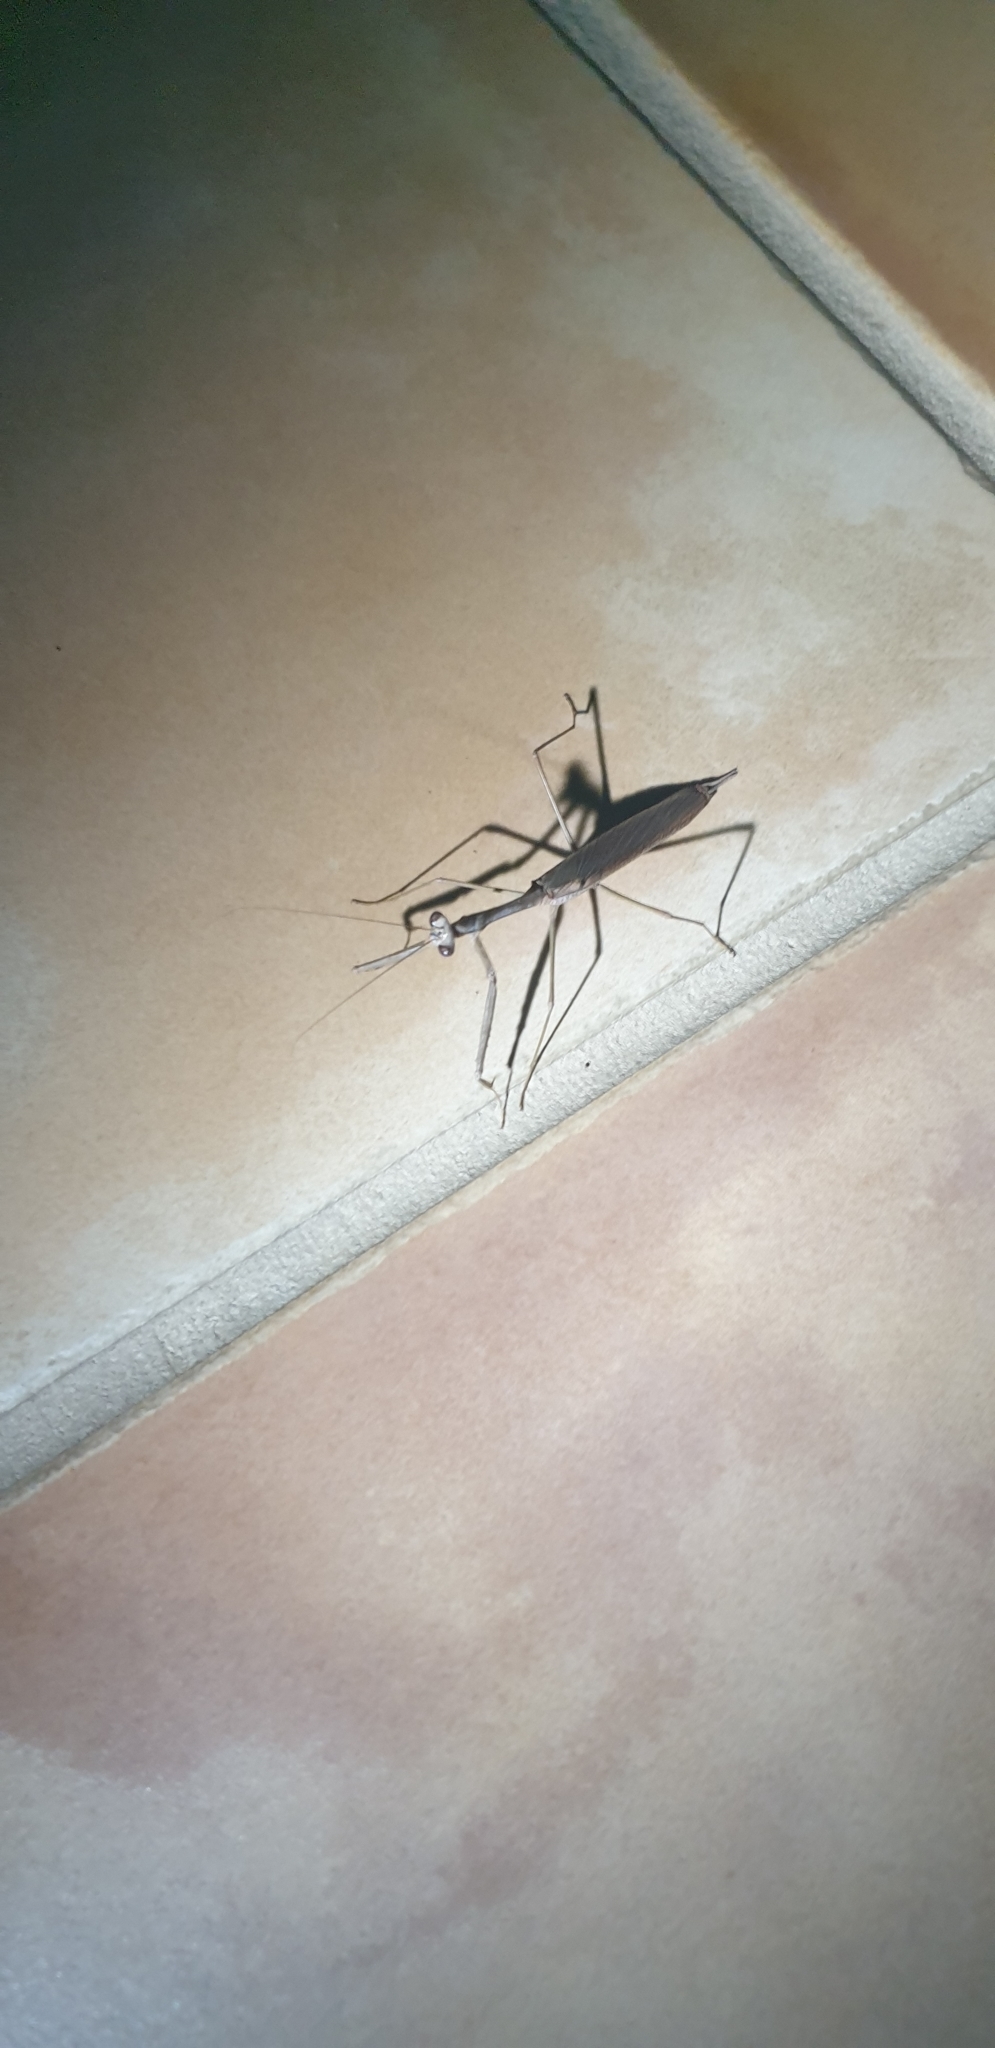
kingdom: Animalia
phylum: Arthropoda
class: Insecta
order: Mantodea
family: Mantidae
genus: Archimantis
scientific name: Archimantis latistyla
